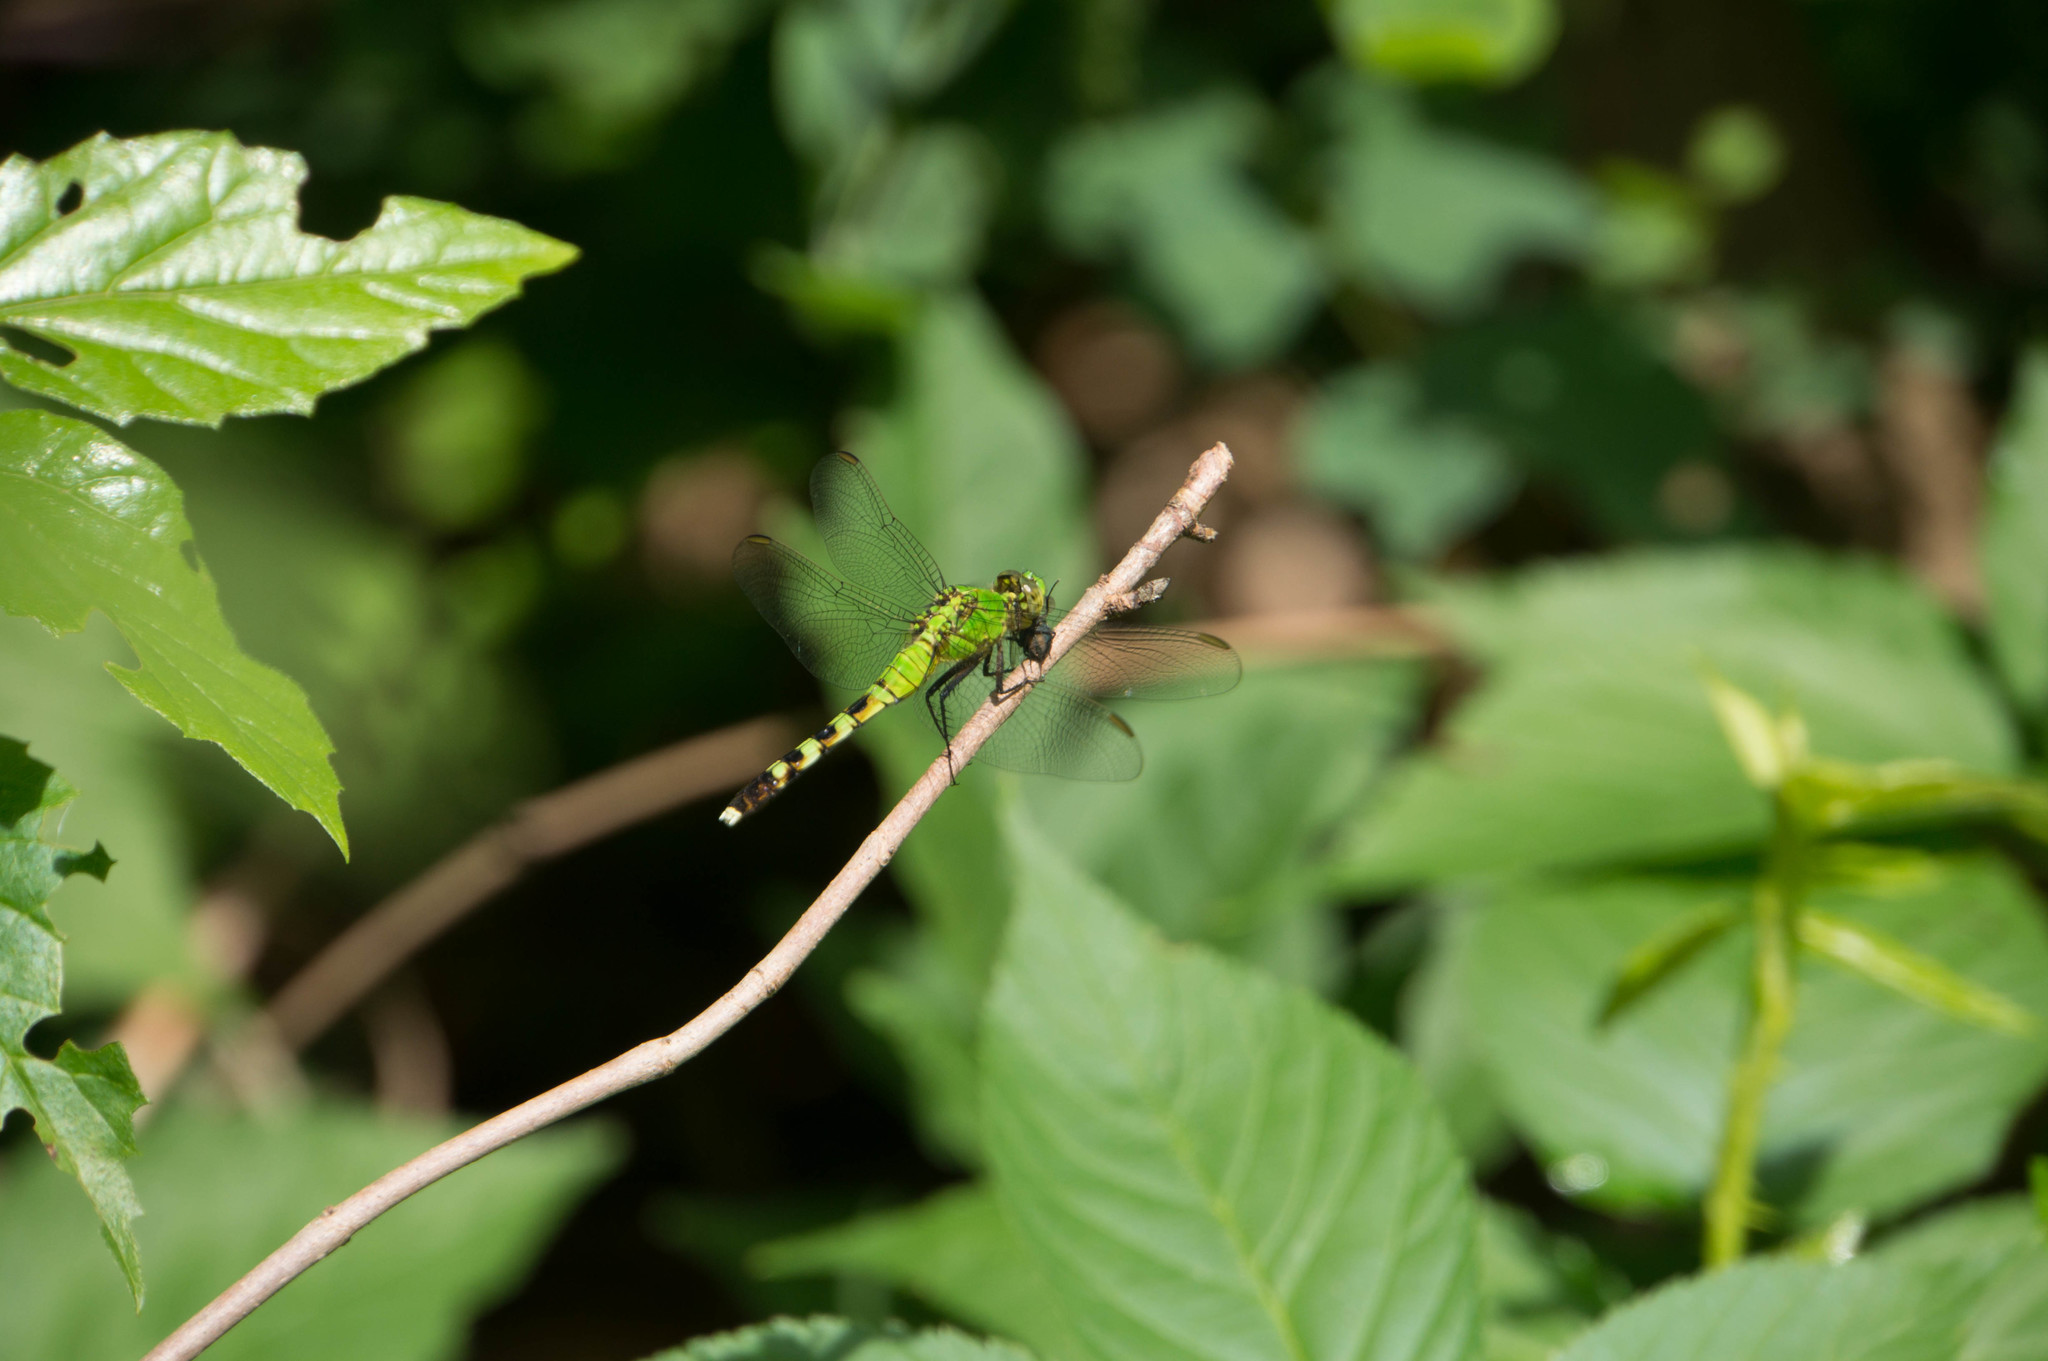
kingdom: Animalia
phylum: Arthropoda
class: Insecta
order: Odonata
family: Libellulidae
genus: Erythemis
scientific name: Erythemis simplicicollis
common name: Eastern pondhawk
